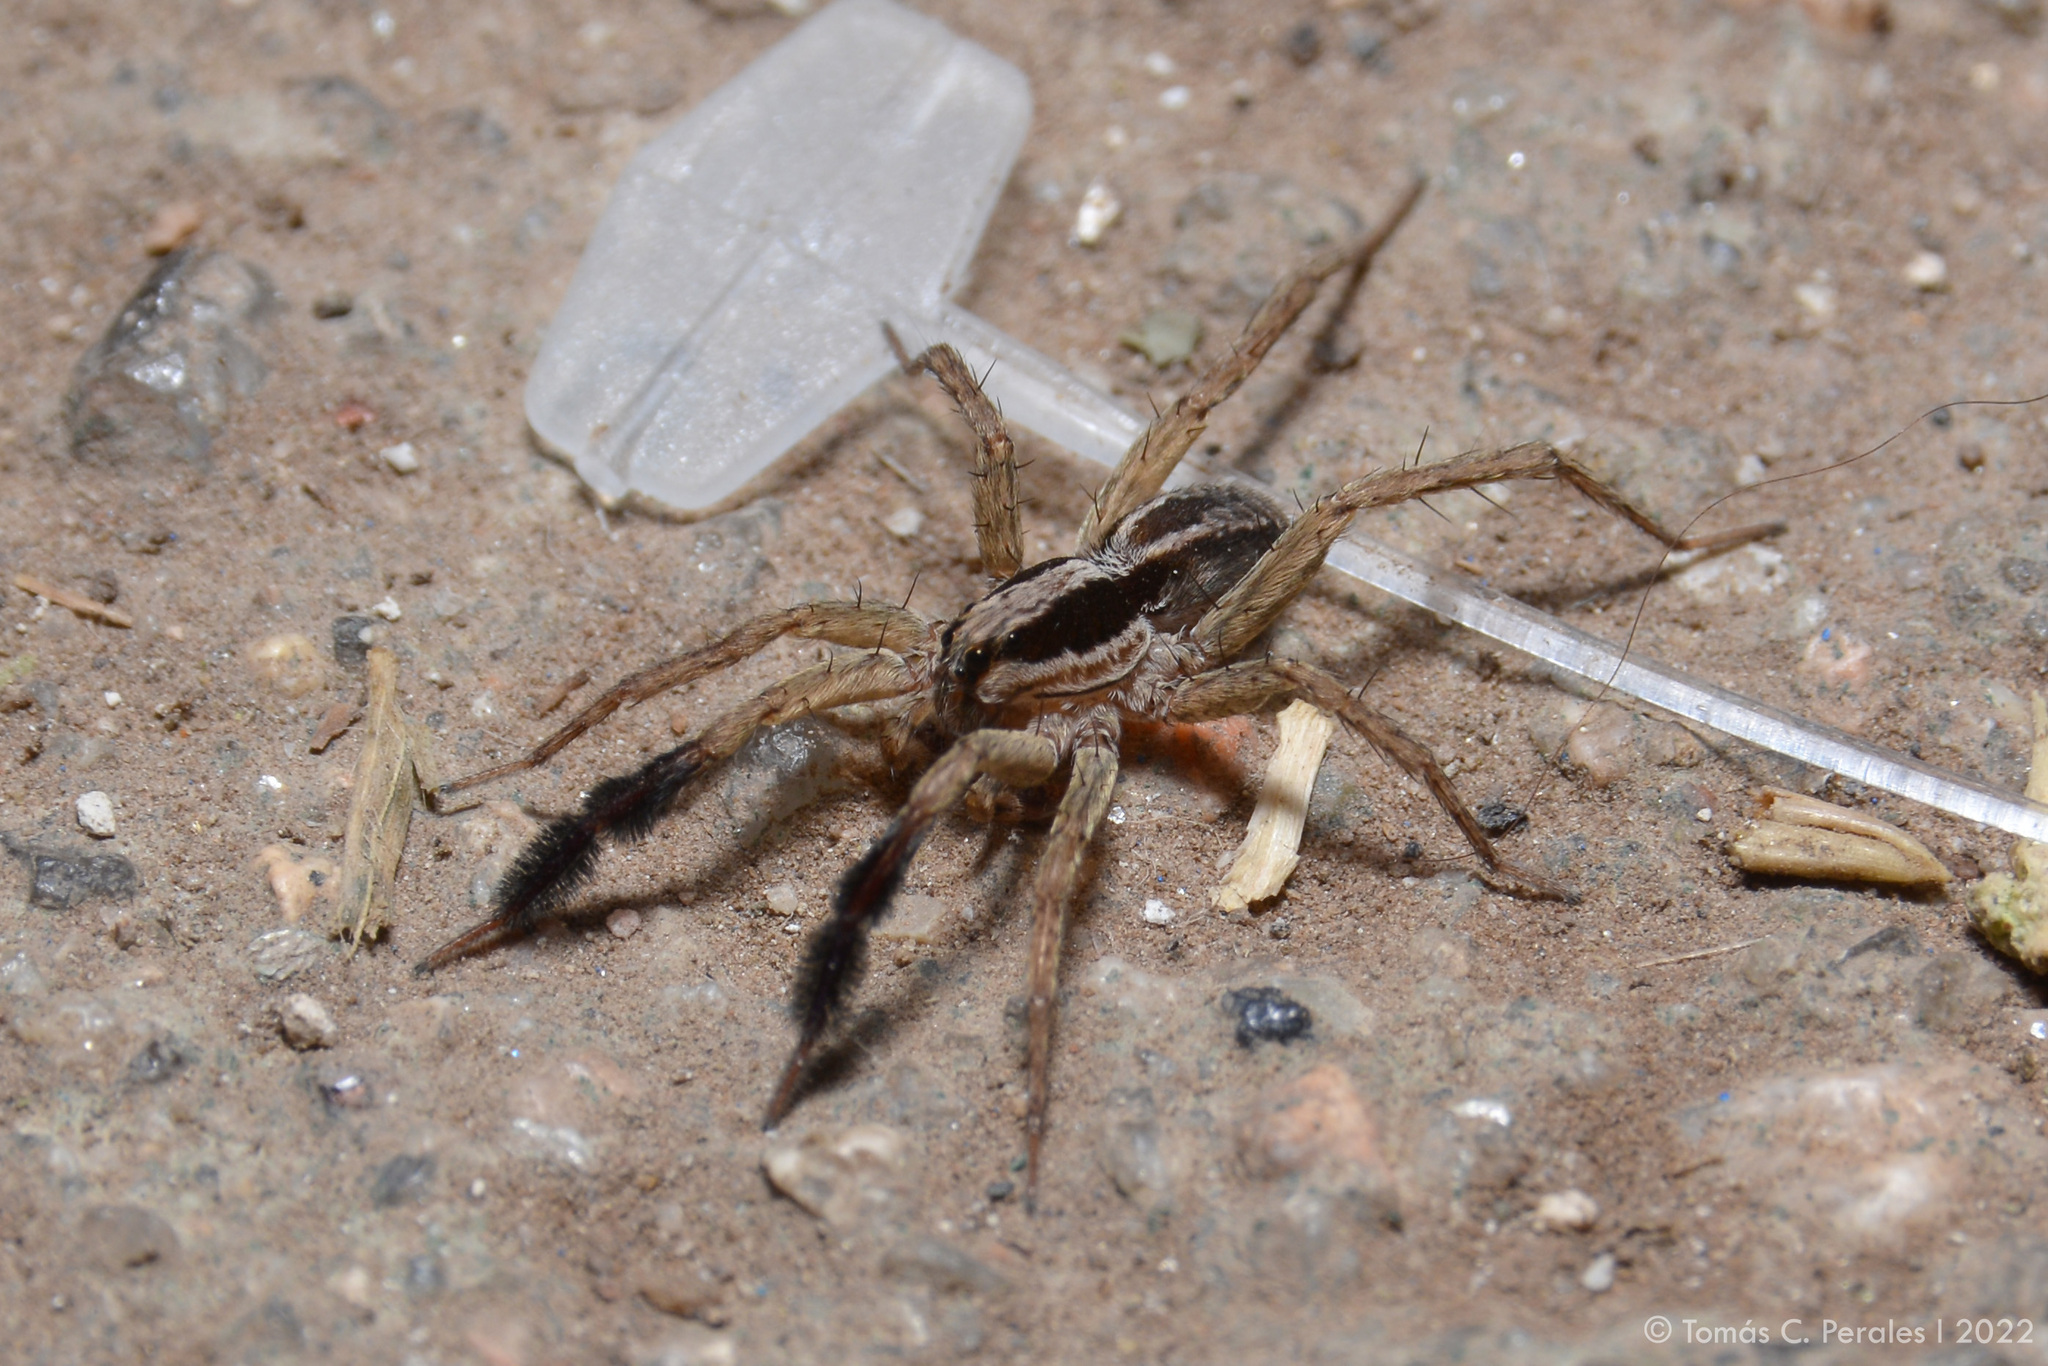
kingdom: Animalia
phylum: Arthropoda
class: Arachnida
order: Araneae
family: Lycosidae
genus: Pardosa
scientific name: Pardosa plumipedata
